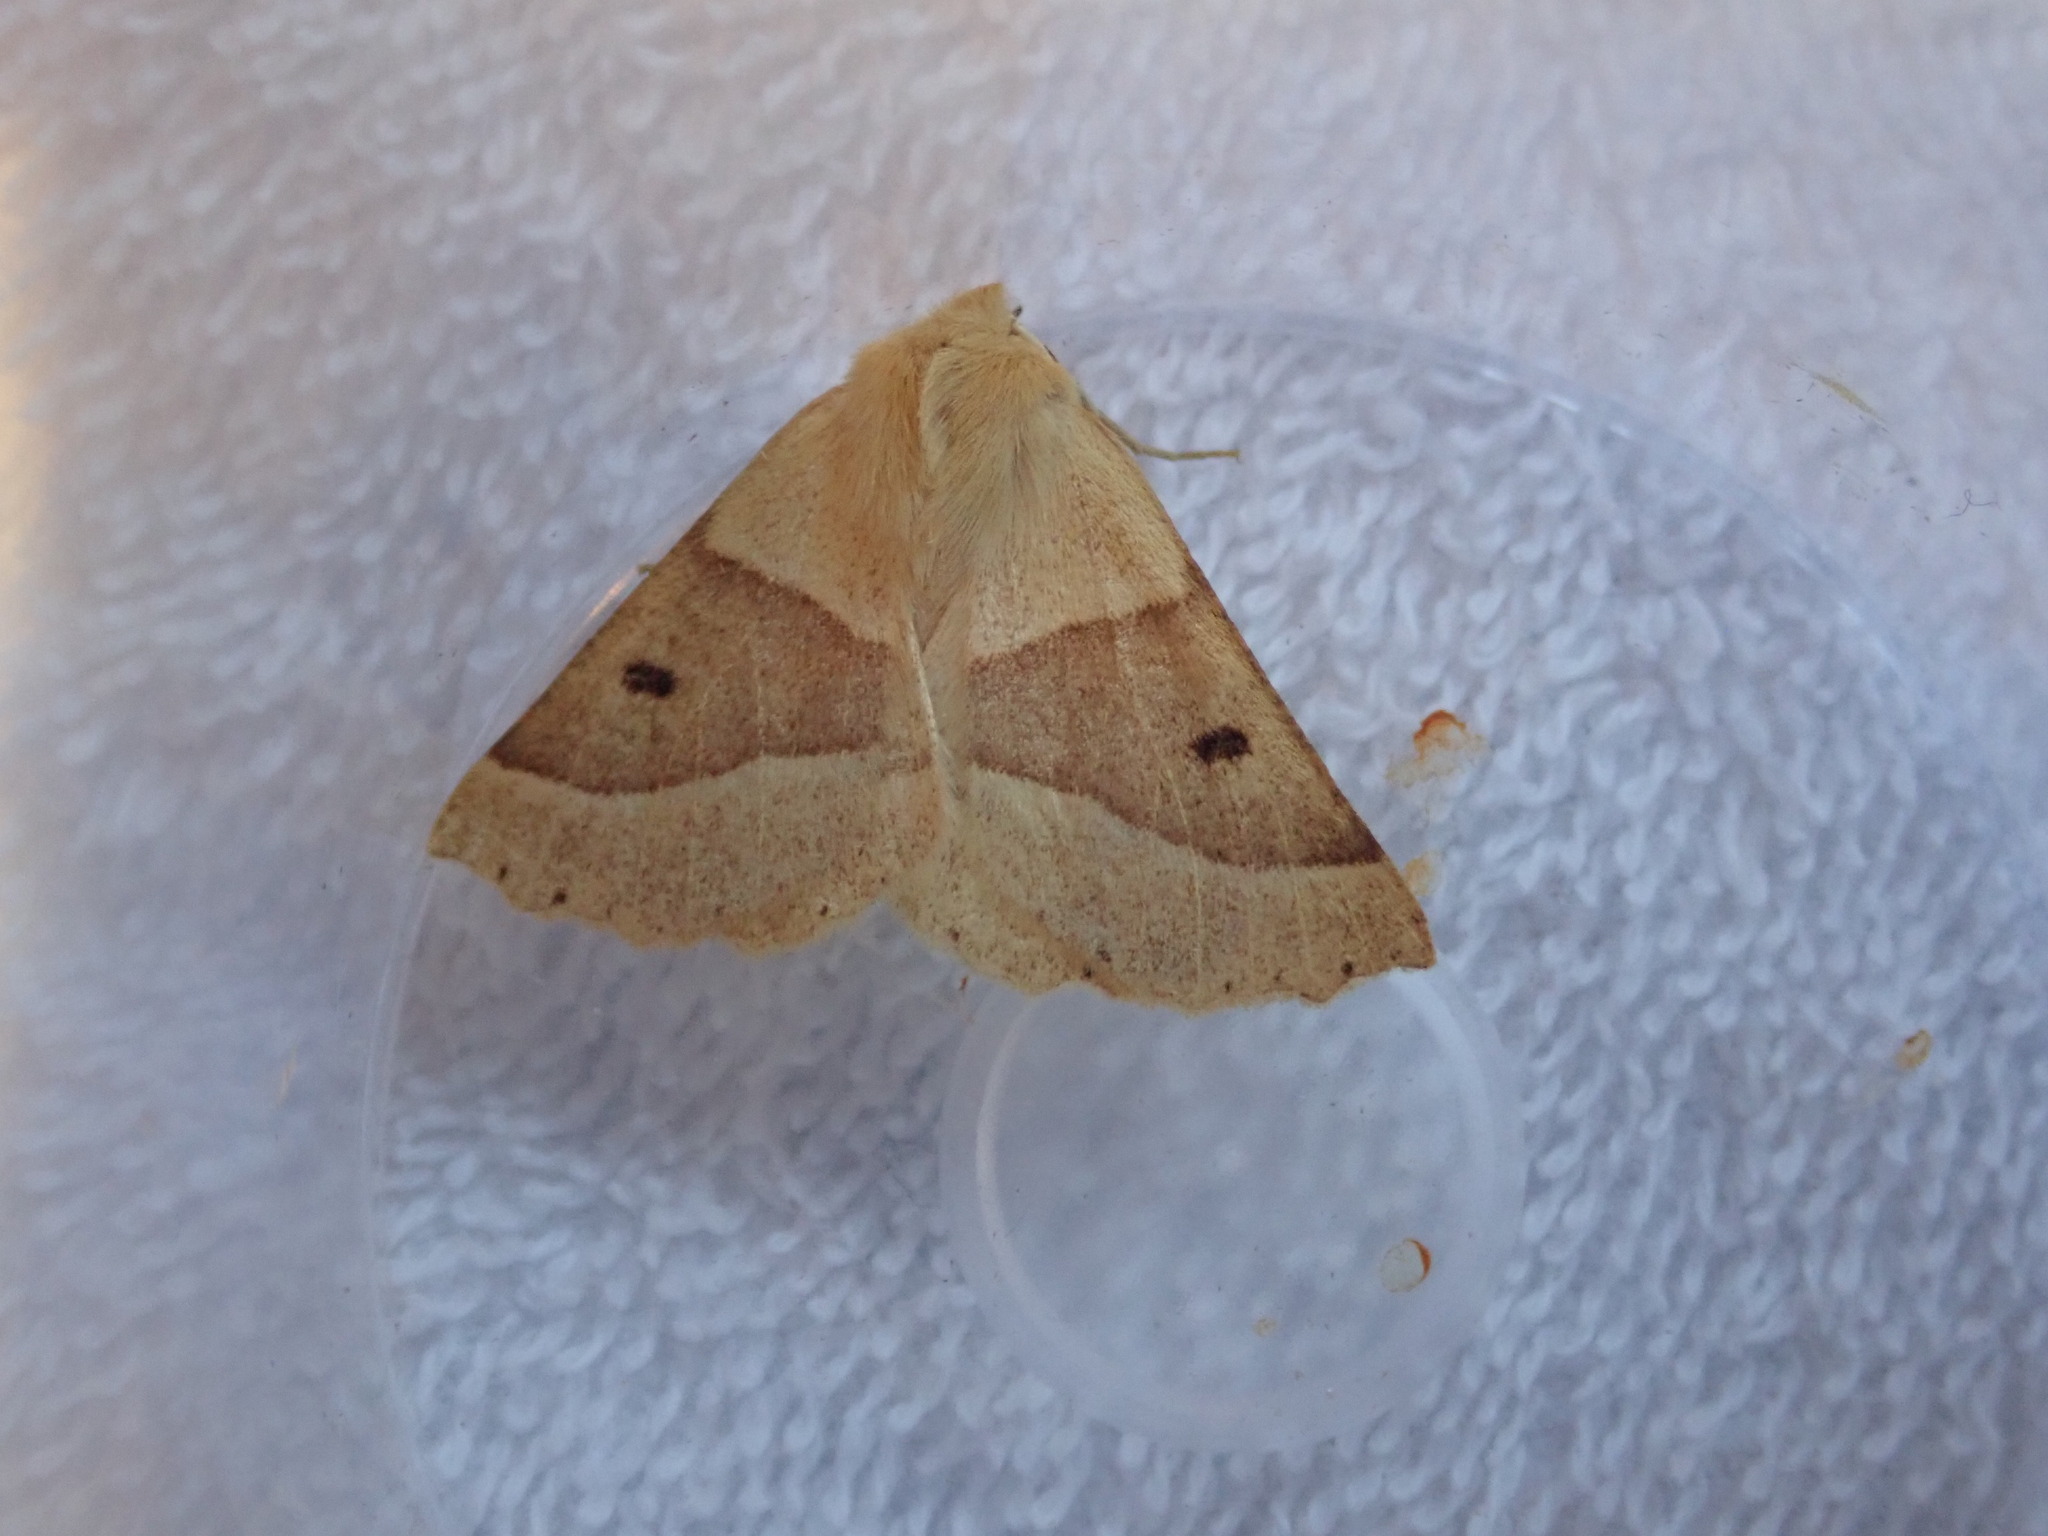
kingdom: Animalia
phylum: Arthropoda
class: Insecta
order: Lepidoptera
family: Geometridae
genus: Crocallis
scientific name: Crocallis elinguaria
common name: Scalloped oak
